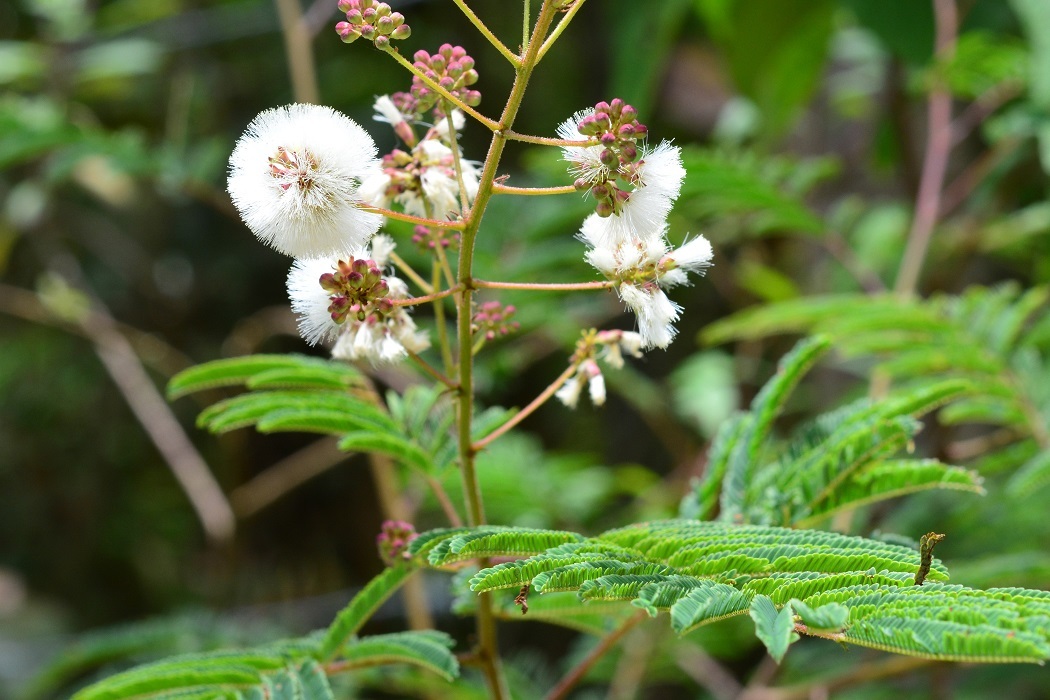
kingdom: Plantae
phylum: Tracheophyta
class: Magnoliopsida
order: Fabales
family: Fabaceae
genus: Acaciella
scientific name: Acaciella angustissima
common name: Prairie acacia
